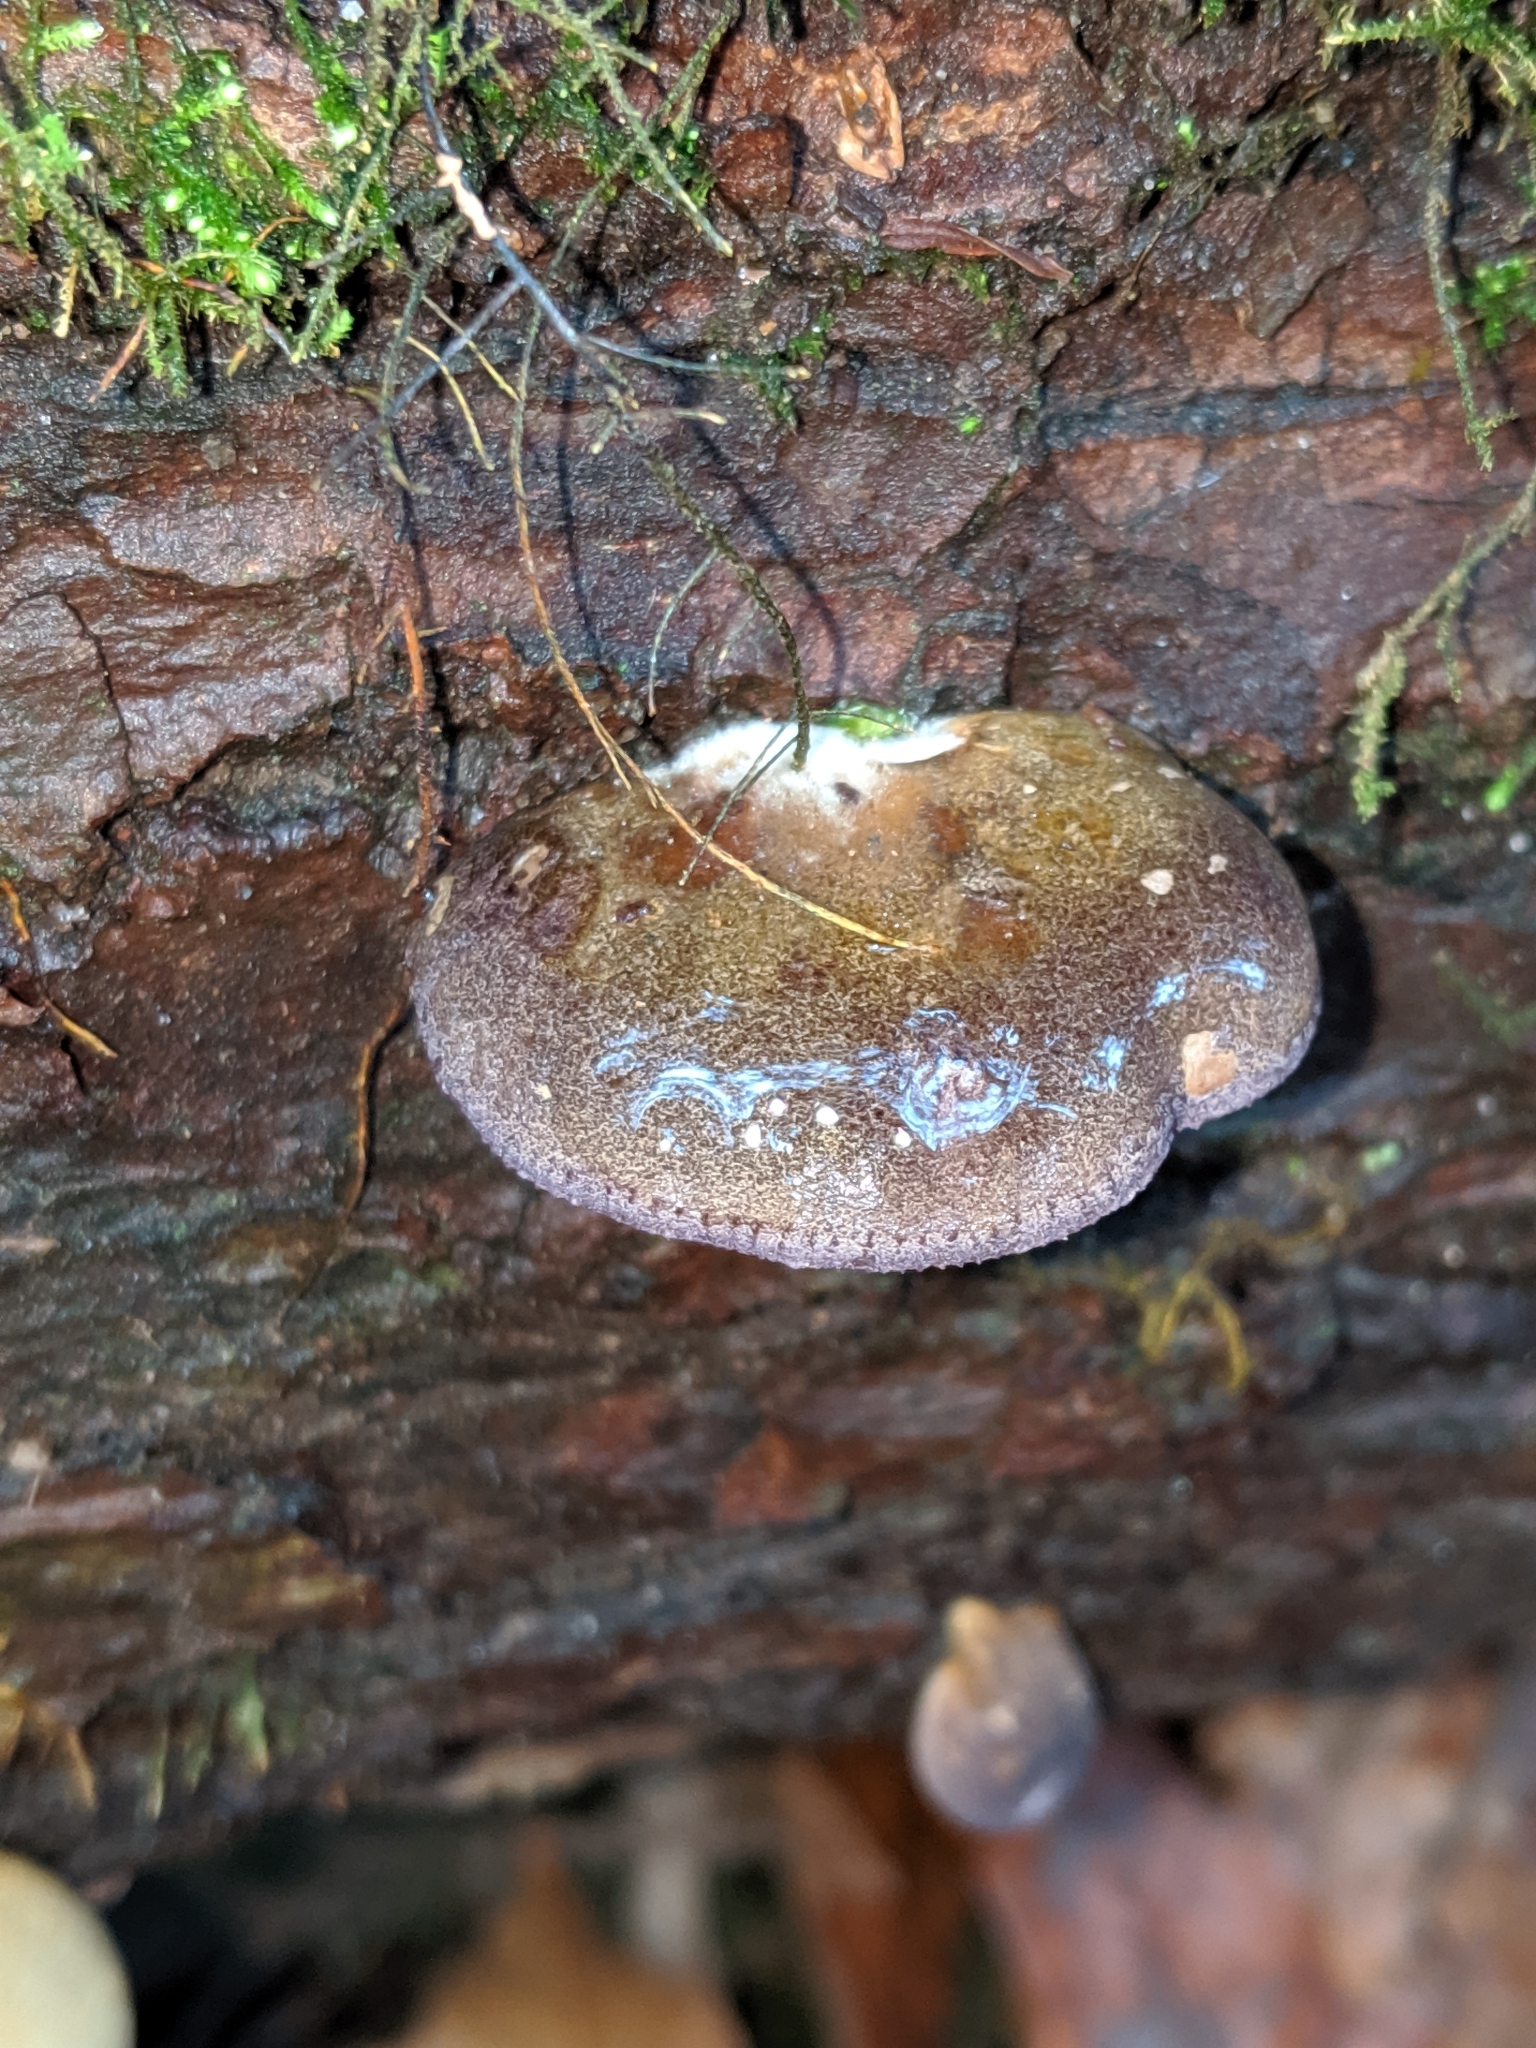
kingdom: Fungi
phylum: Basidiomycota
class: Agaricomycetes
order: Agaricales
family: Sarcomyxaceae
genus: Sarcomyxa
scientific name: Sarcomyxa serotina
